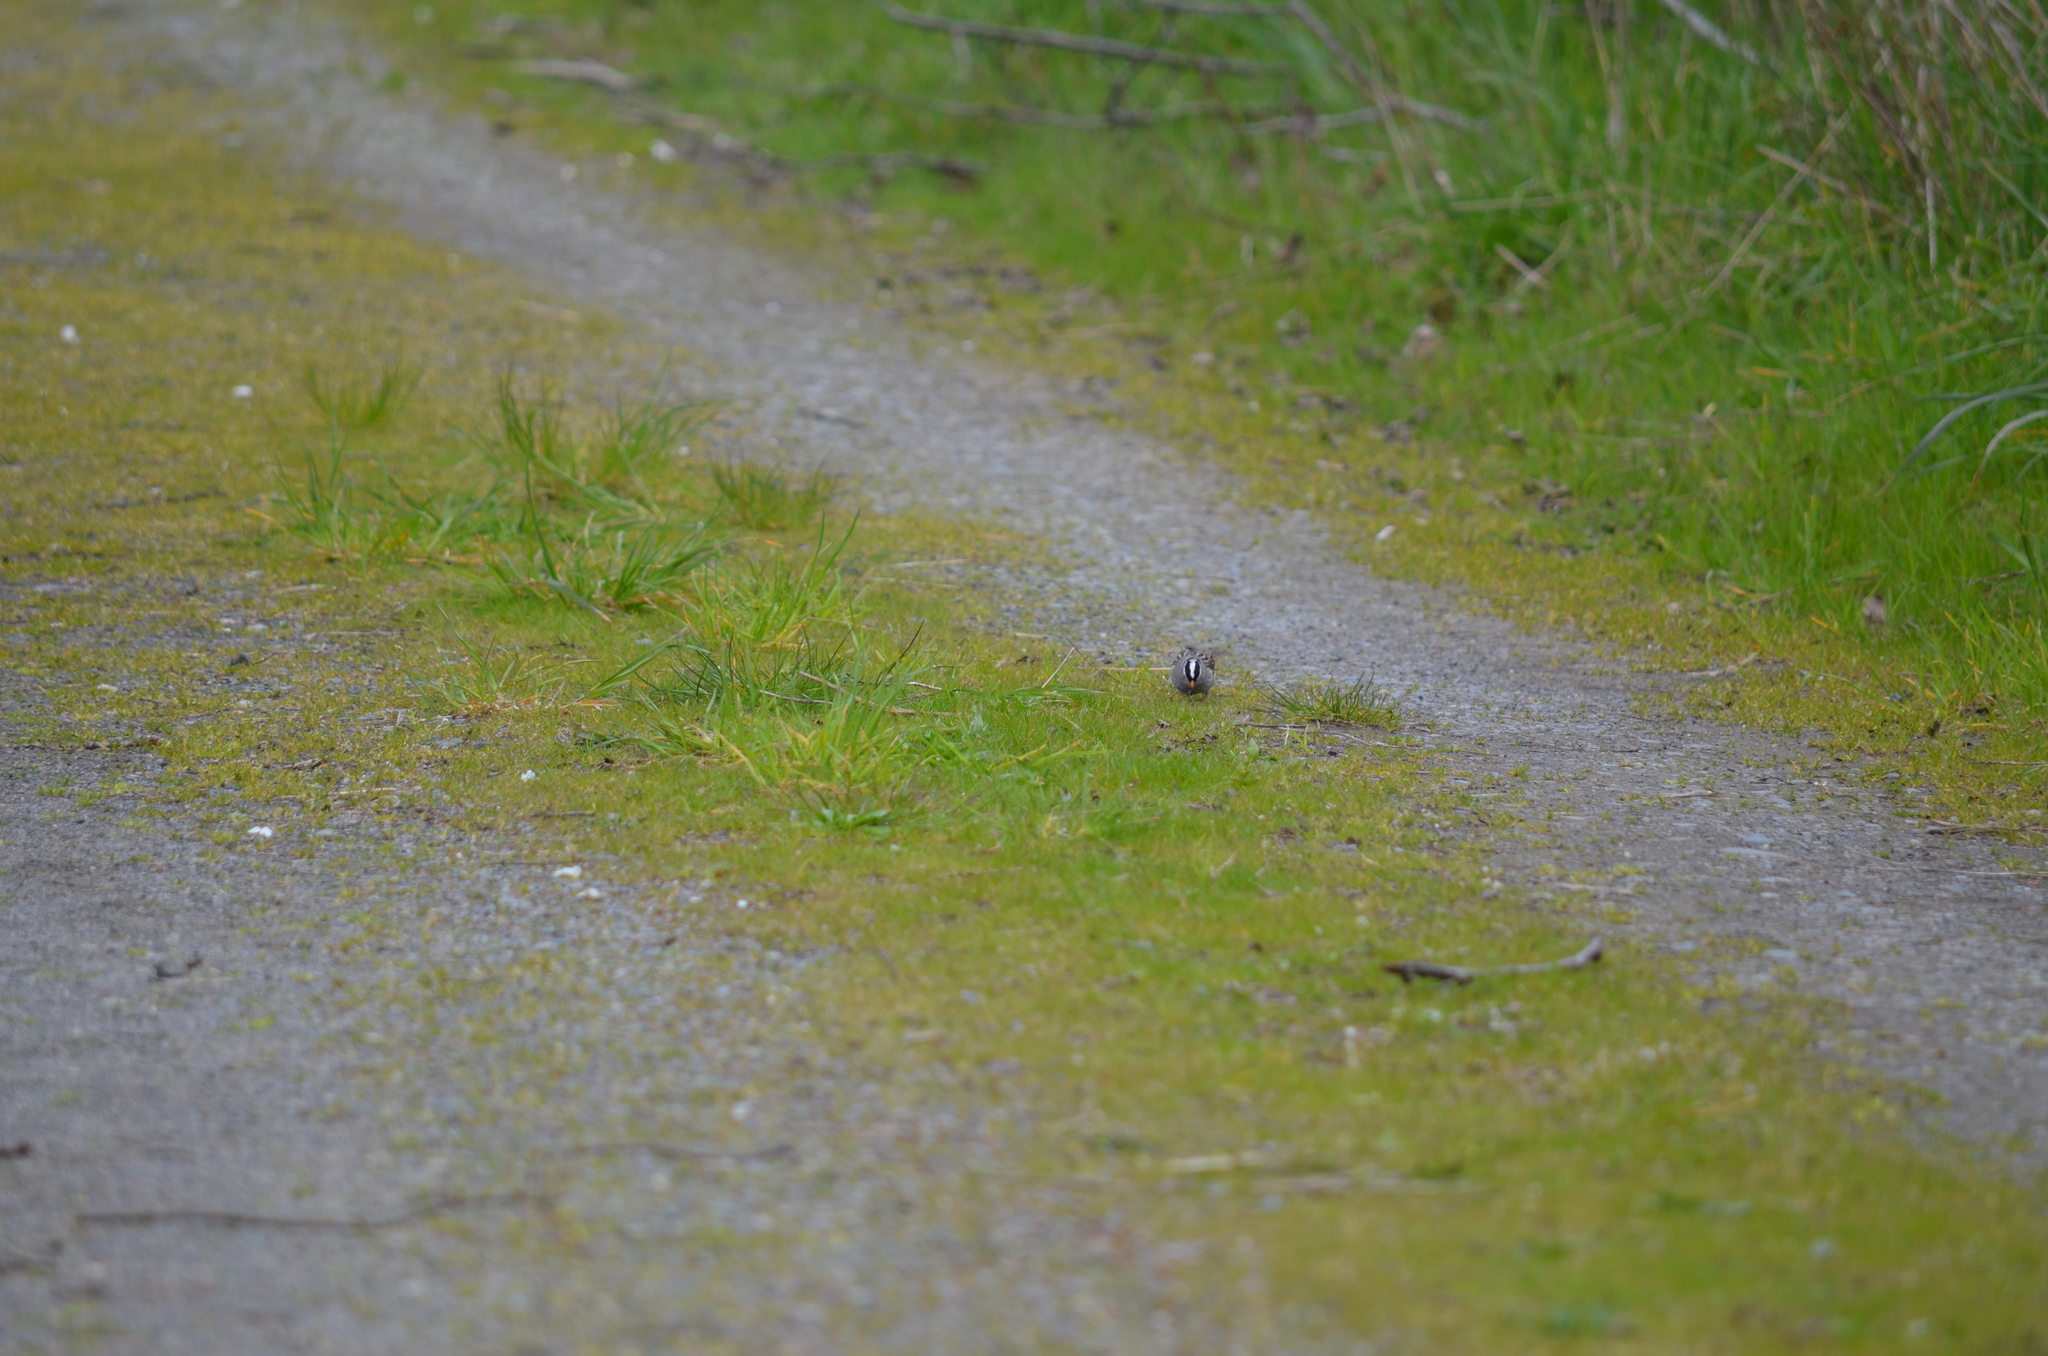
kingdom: Animalia
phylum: Chordata
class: Aves
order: Passeriformes
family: Passerellidae
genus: Zonotrichia
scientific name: Zonotrichia leucophrys
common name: White-crowned sparrow
